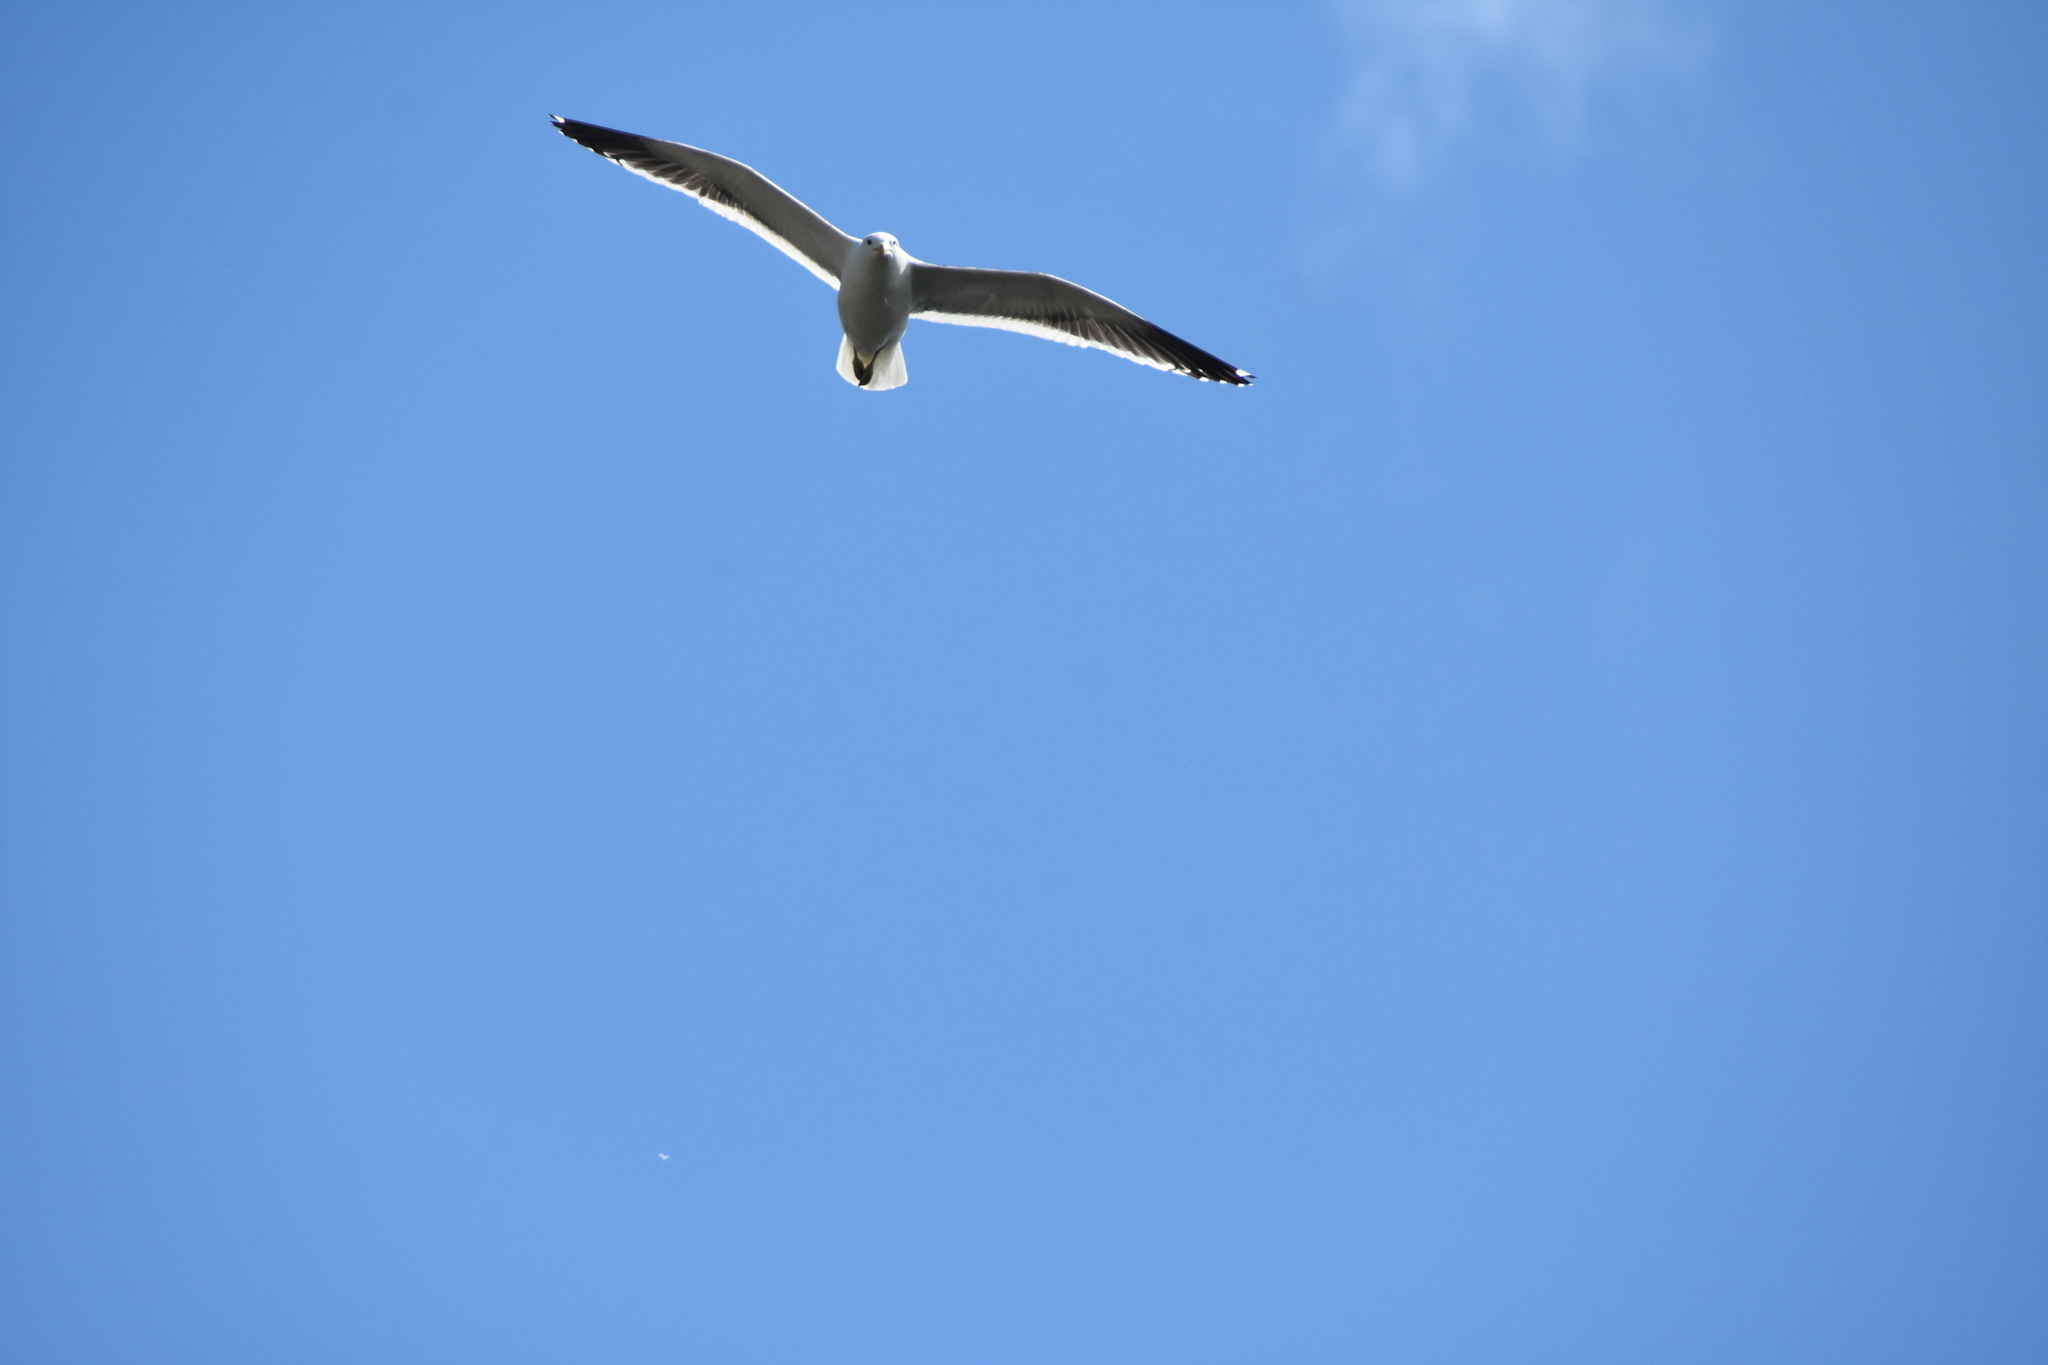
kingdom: Animalia
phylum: Chordata
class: Aves
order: Charadriiformes
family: Laridae
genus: Larus
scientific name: Larus dominicanus
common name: Kelp gull
